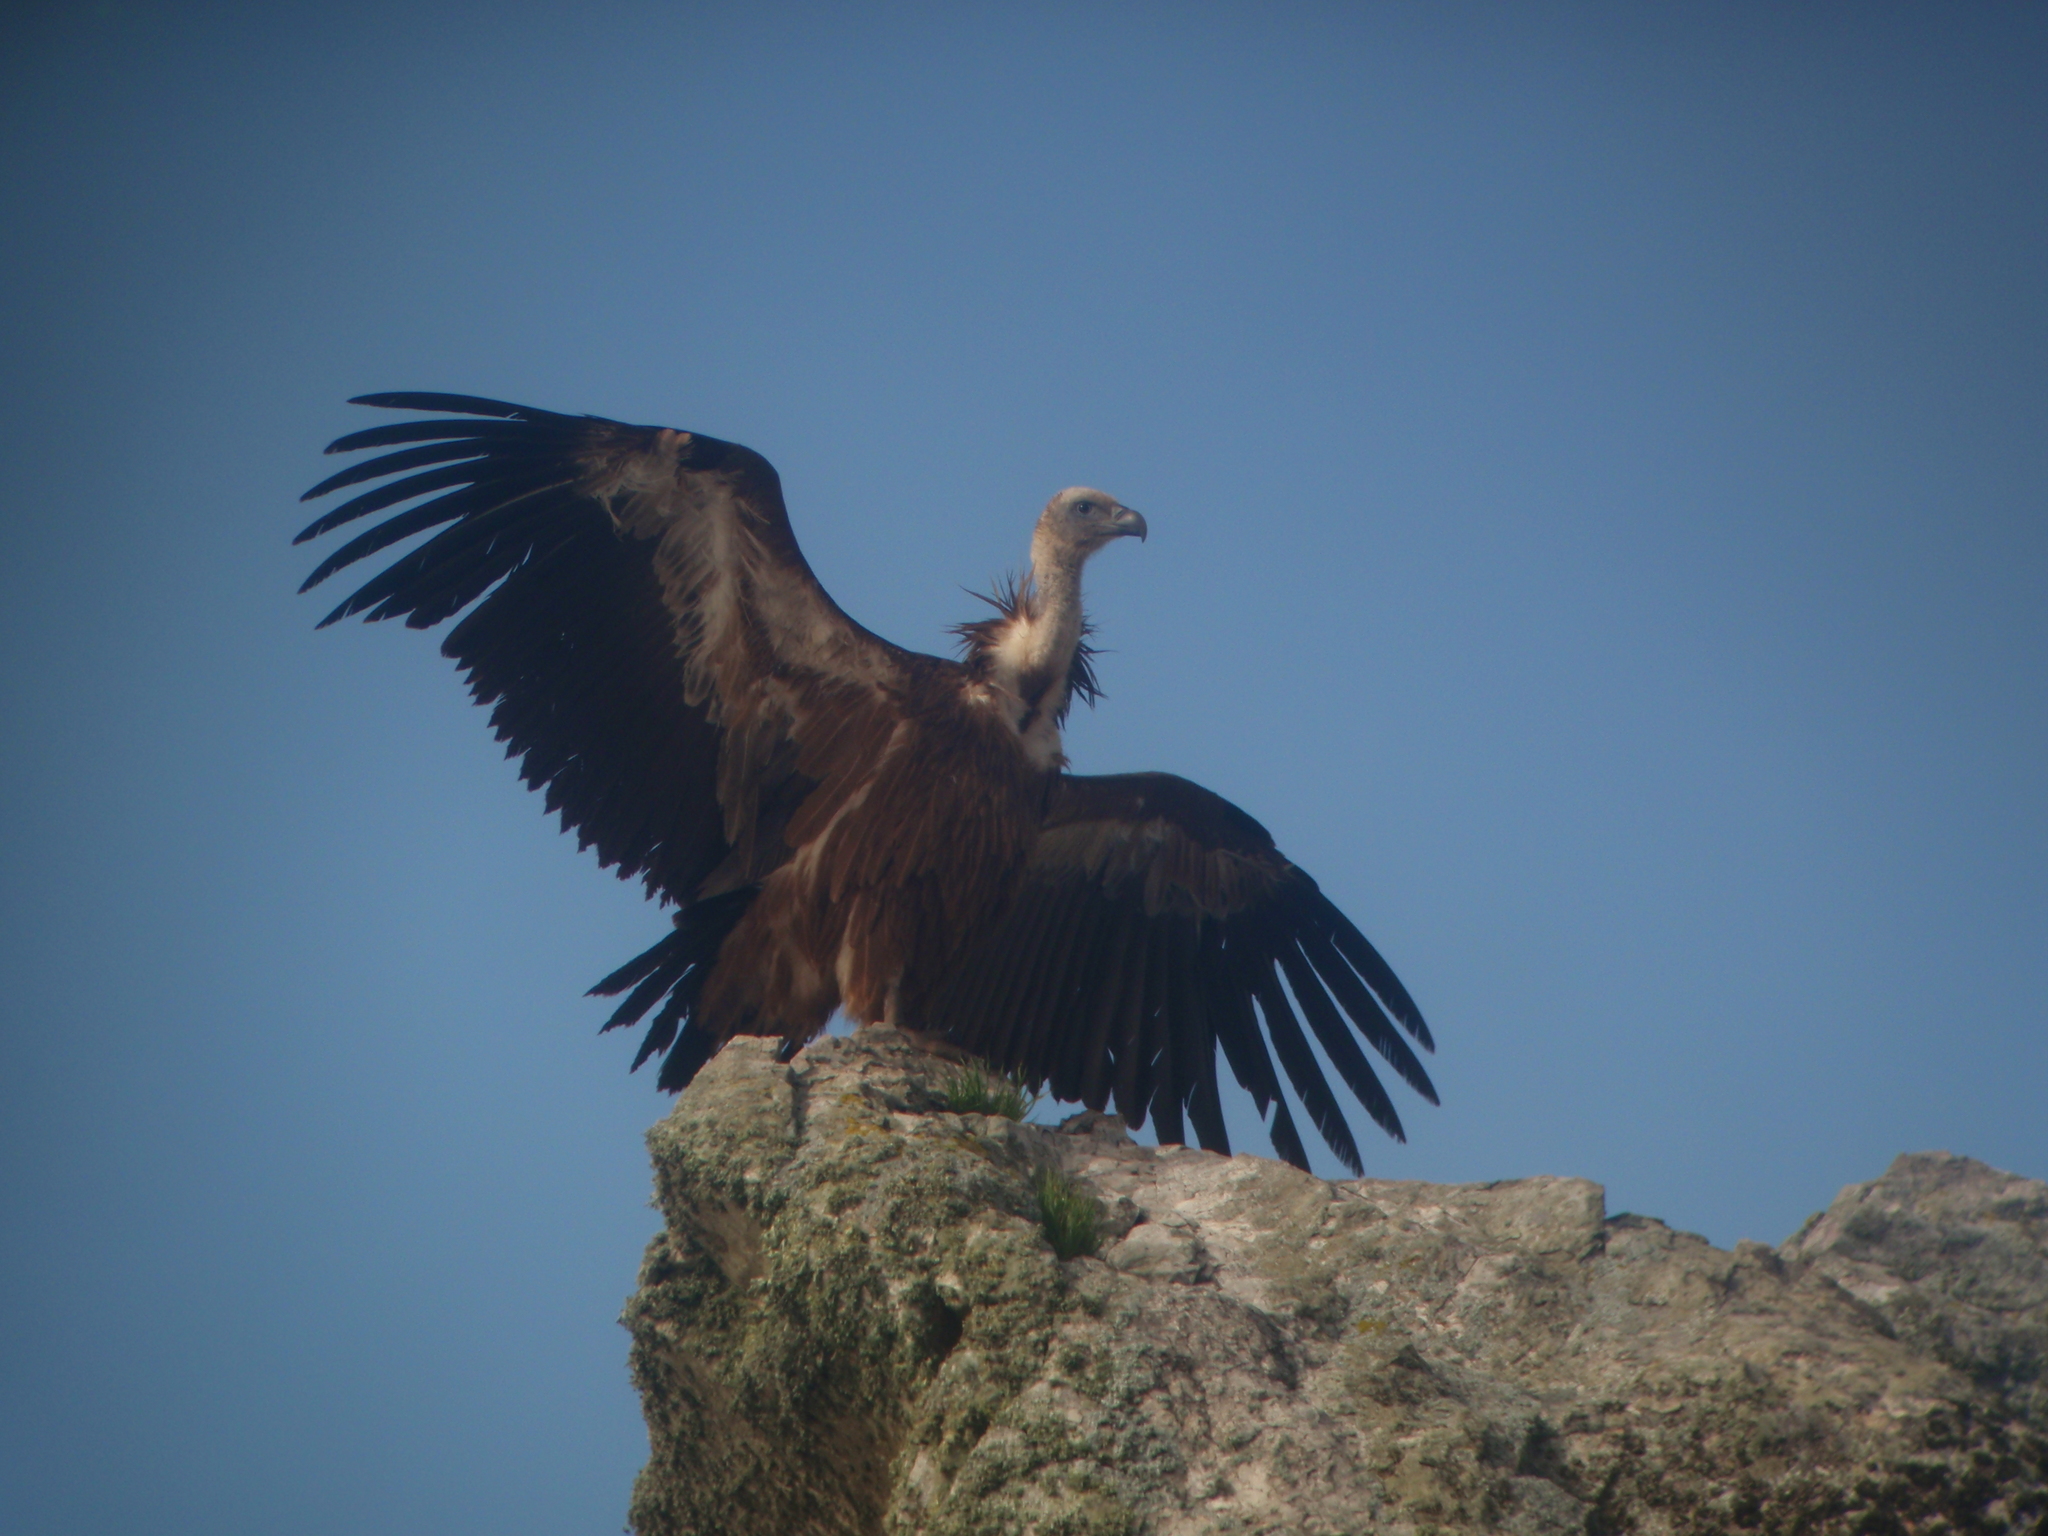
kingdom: Animalia
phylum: Chordata
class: Aves
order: Accipitriformes
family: Accipitridae
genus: Gyps
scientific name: Gyps fulvus
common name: Griffon vulture
